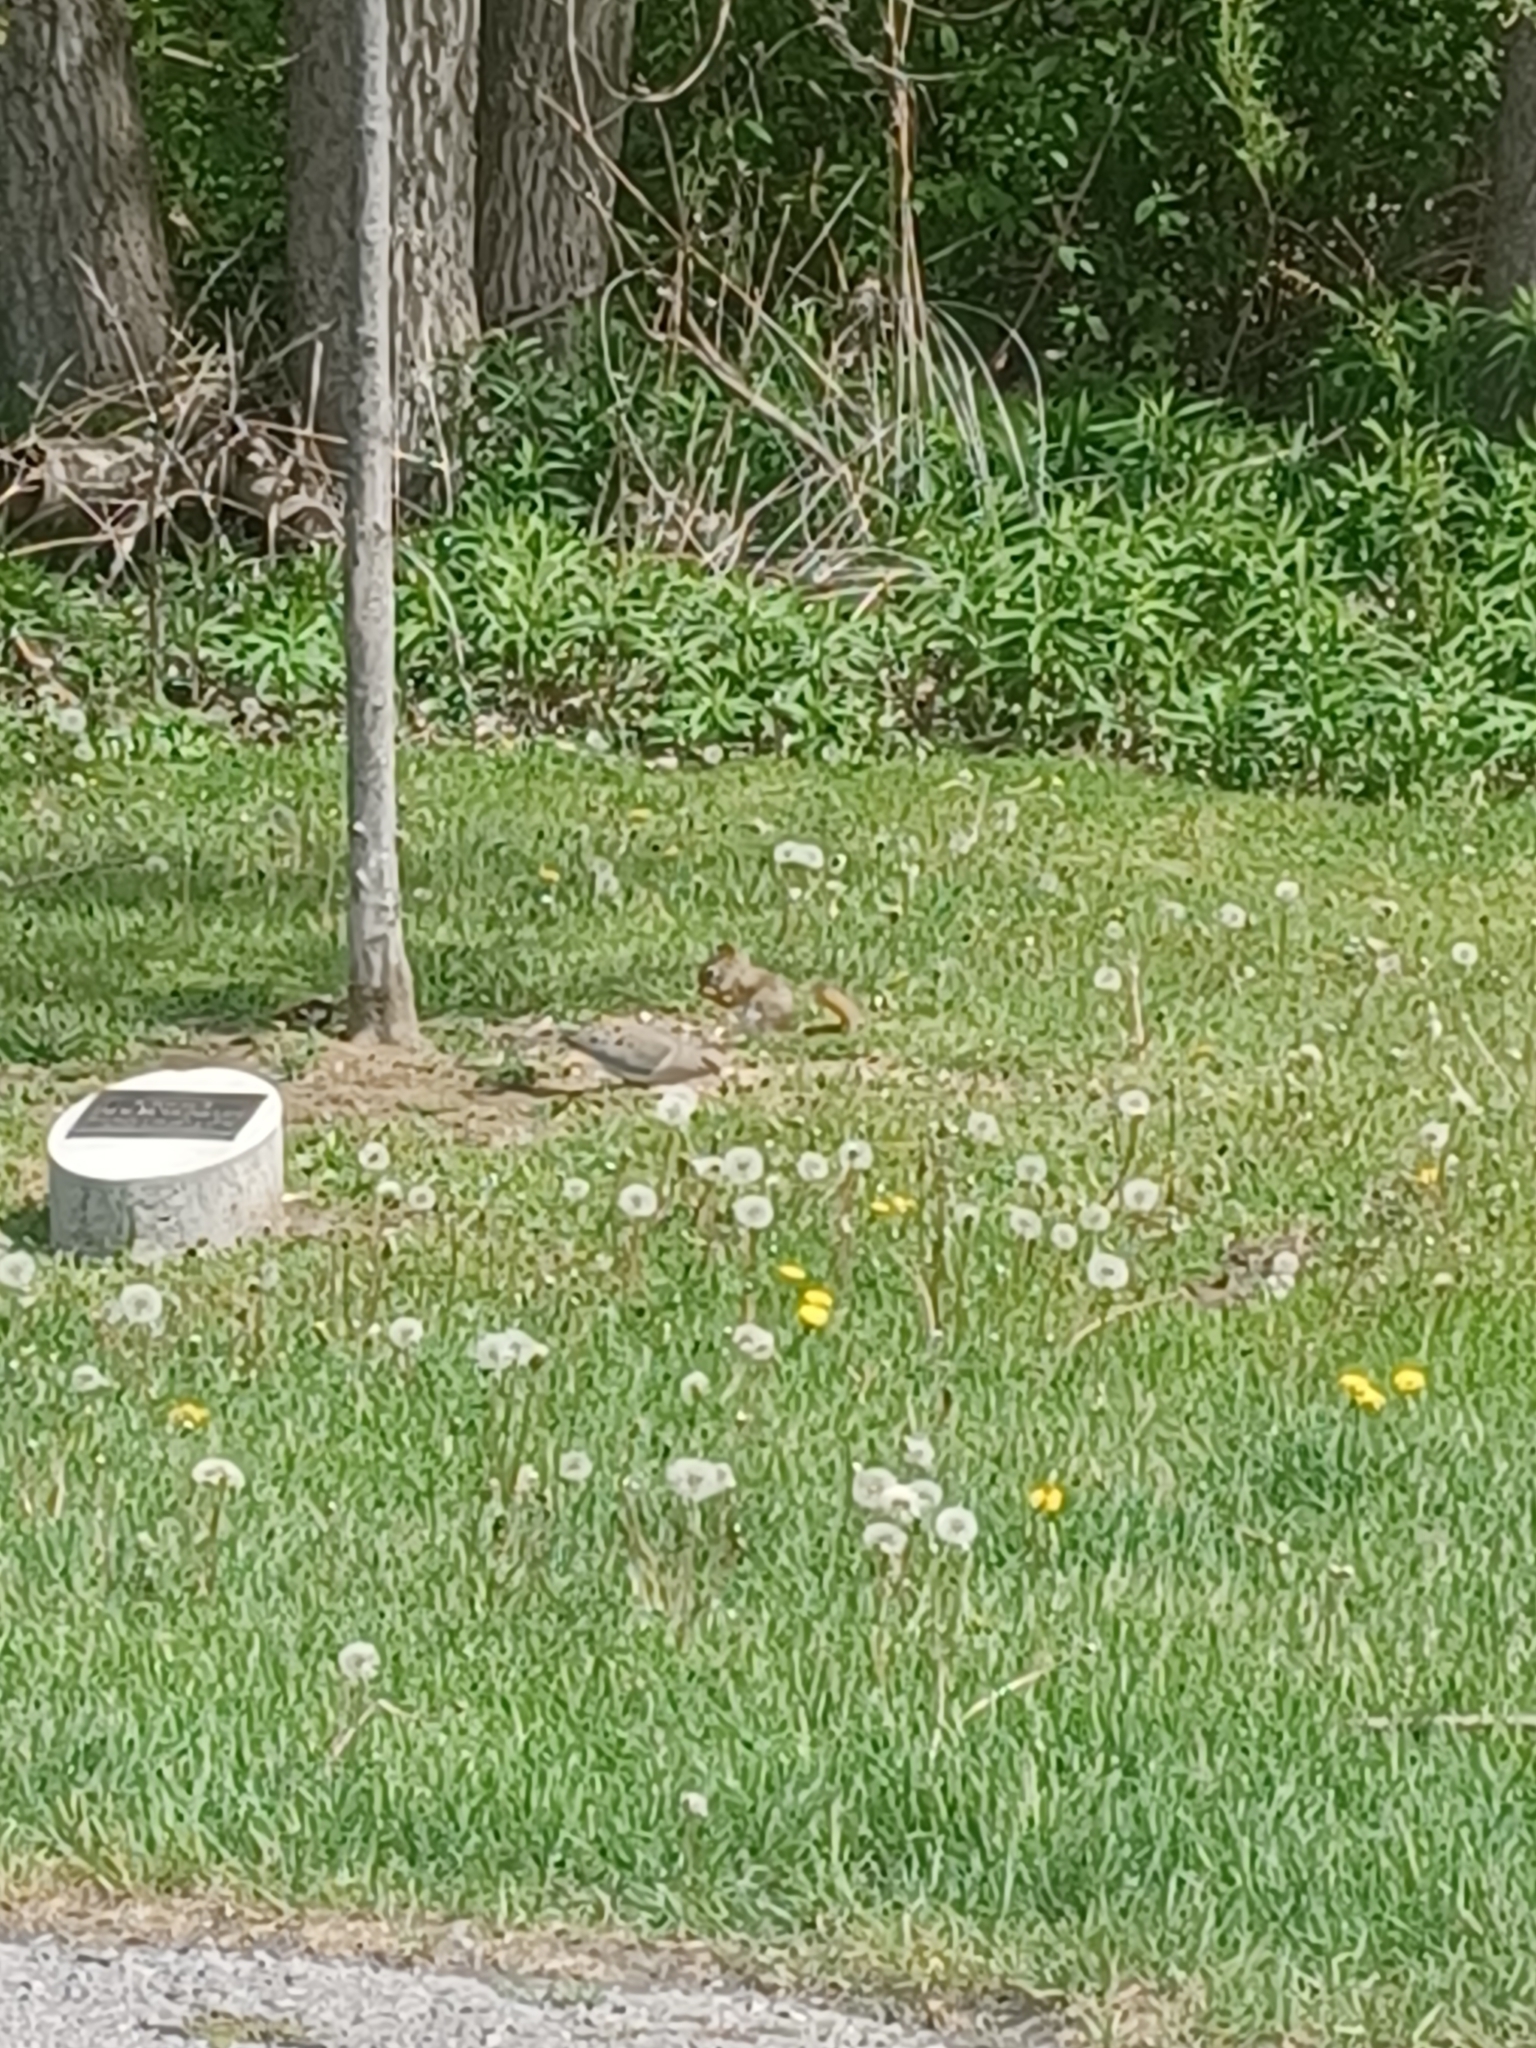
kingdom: Animalia
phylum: Chordata
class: Mammalia
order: Rodentia
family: Sciuridae
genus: Tamiasciurus
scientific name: Tamiasciurus hudsonicus
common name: Red squirrel
